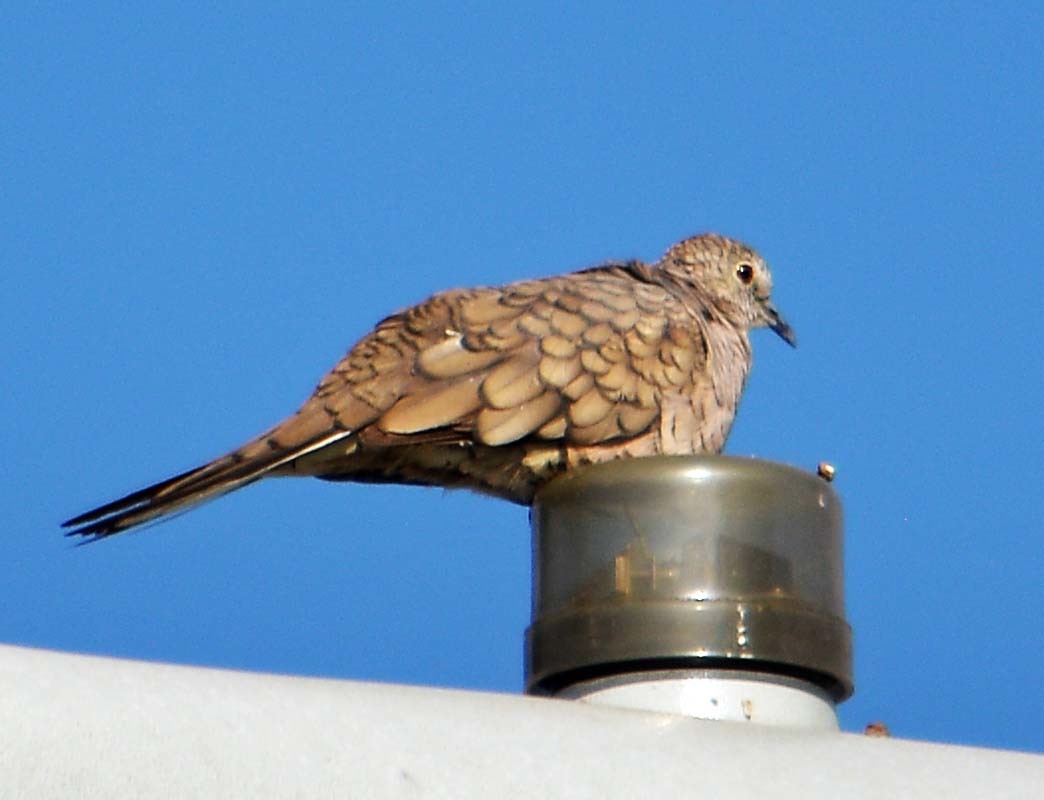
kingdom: Animalia
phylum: Chordata
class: Aves
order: Columbiformes
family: Columbidae
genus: Columbina
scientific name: Columbina inca
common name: Inca dove
